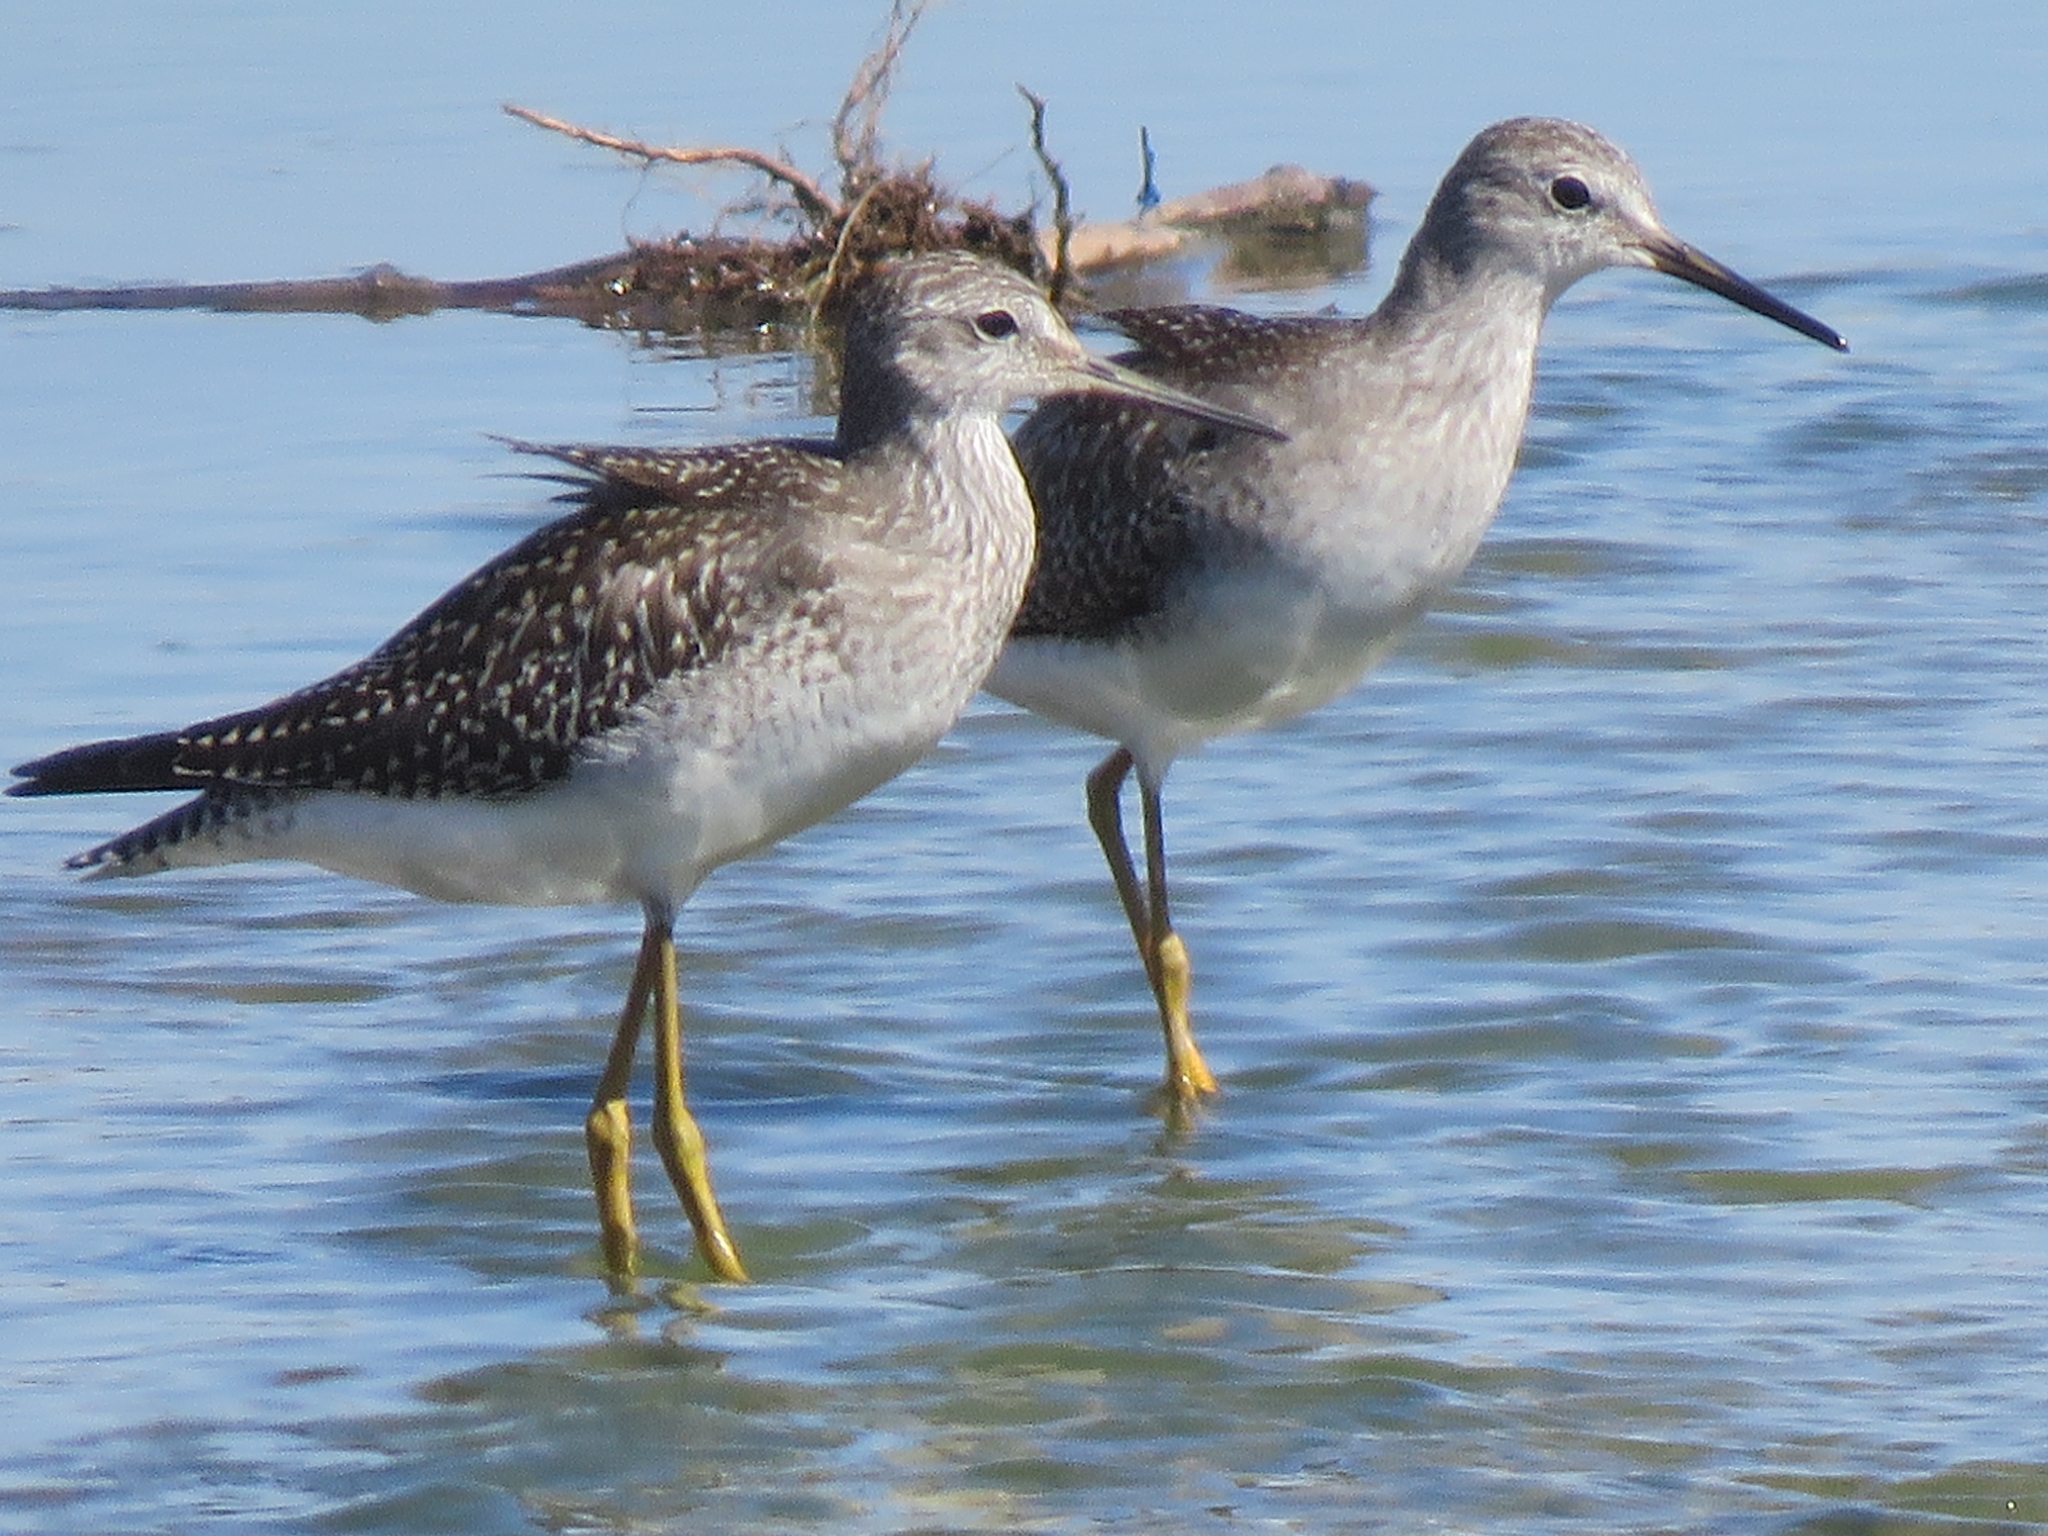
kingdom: Animalia
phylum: Chordata
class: Aves
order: Charadriiformes
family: Scolopacidae
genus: Tringa
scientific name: Tringa flavipes
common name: Lesser yellowlegs
